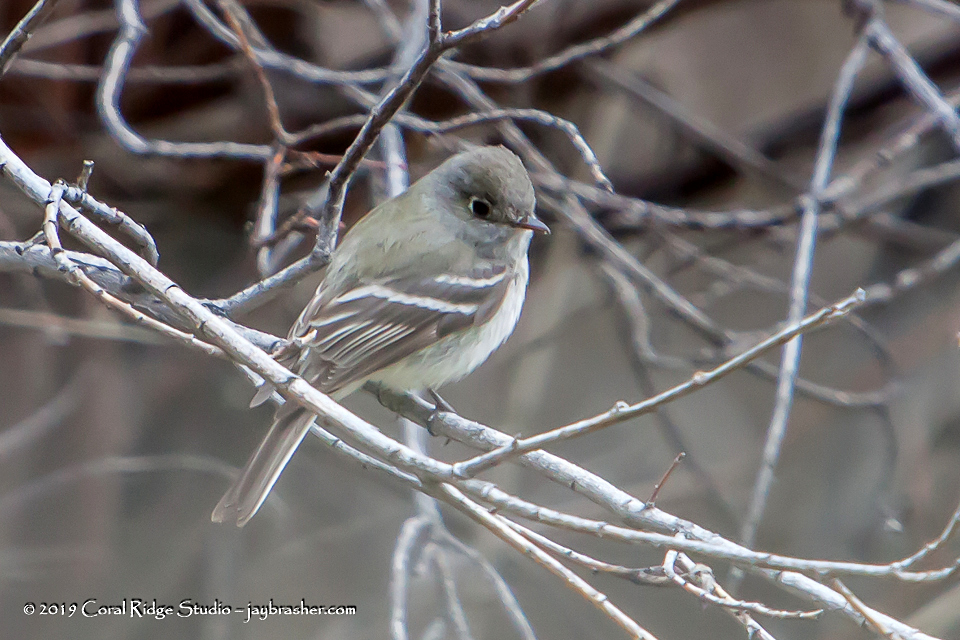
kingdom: Animalia
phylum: Chordata
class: Aves
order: Passeriformes
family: Tyrannidae
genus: Empidonax
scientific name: Empidonax minimus
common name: Least flycatcher
